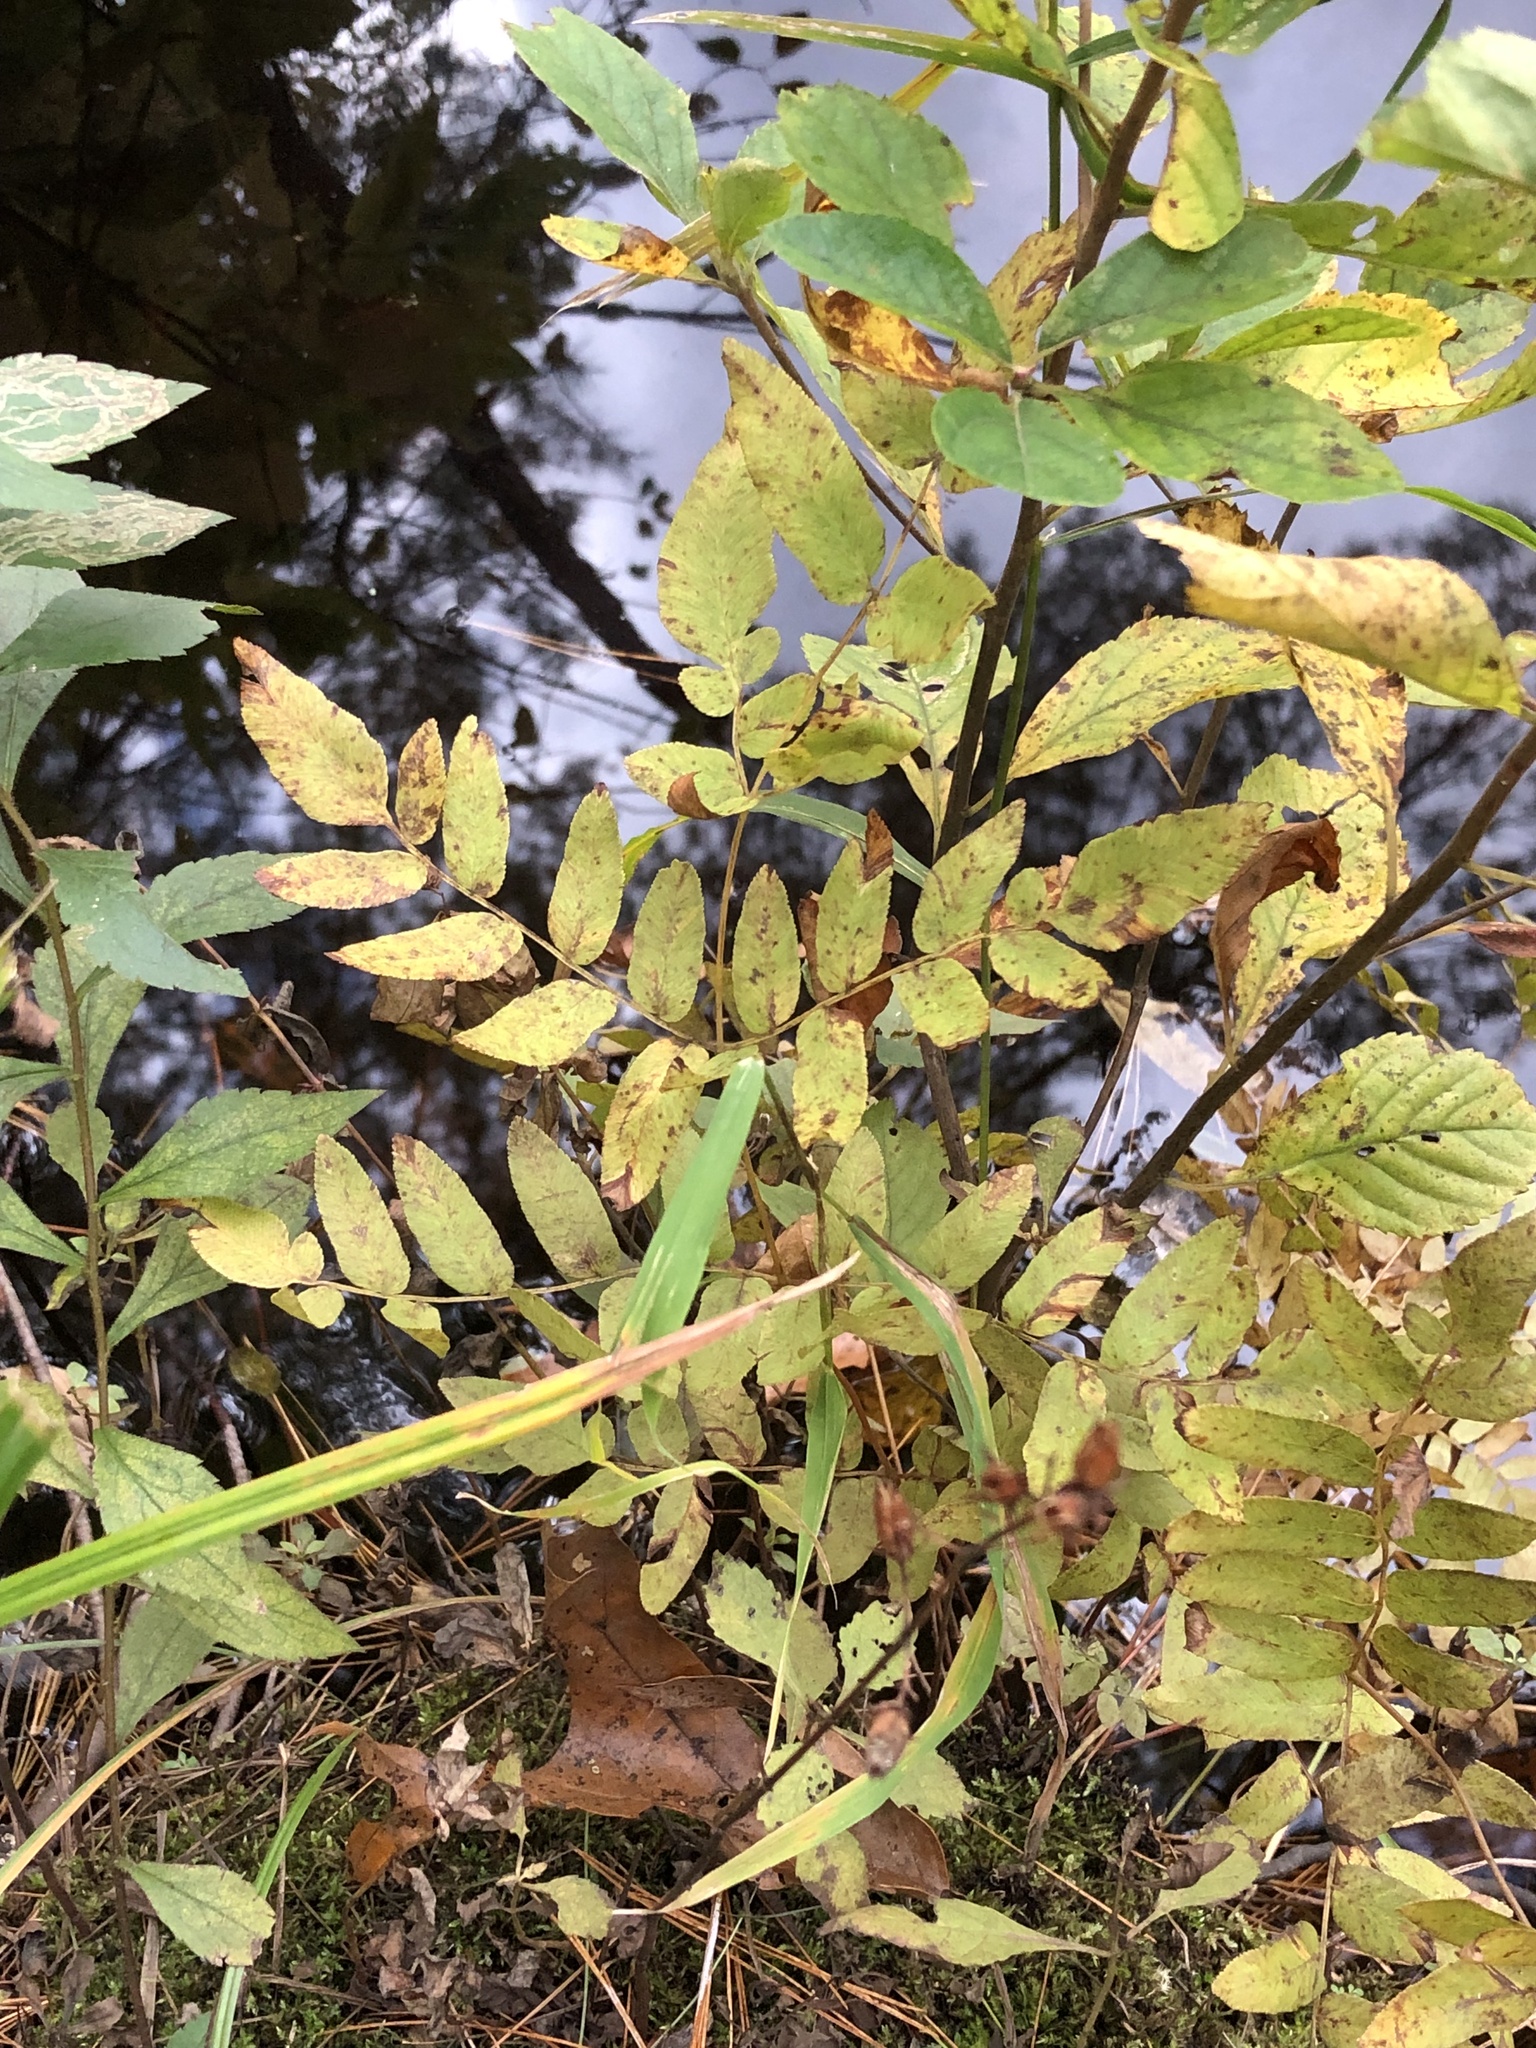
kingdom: Plantae
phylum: Tracheophyta
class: Polypodiopsida
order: Osmundales
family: Osmundaceae
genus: Osmunda
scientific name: Osmunda spectabilis
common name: American royal fern
